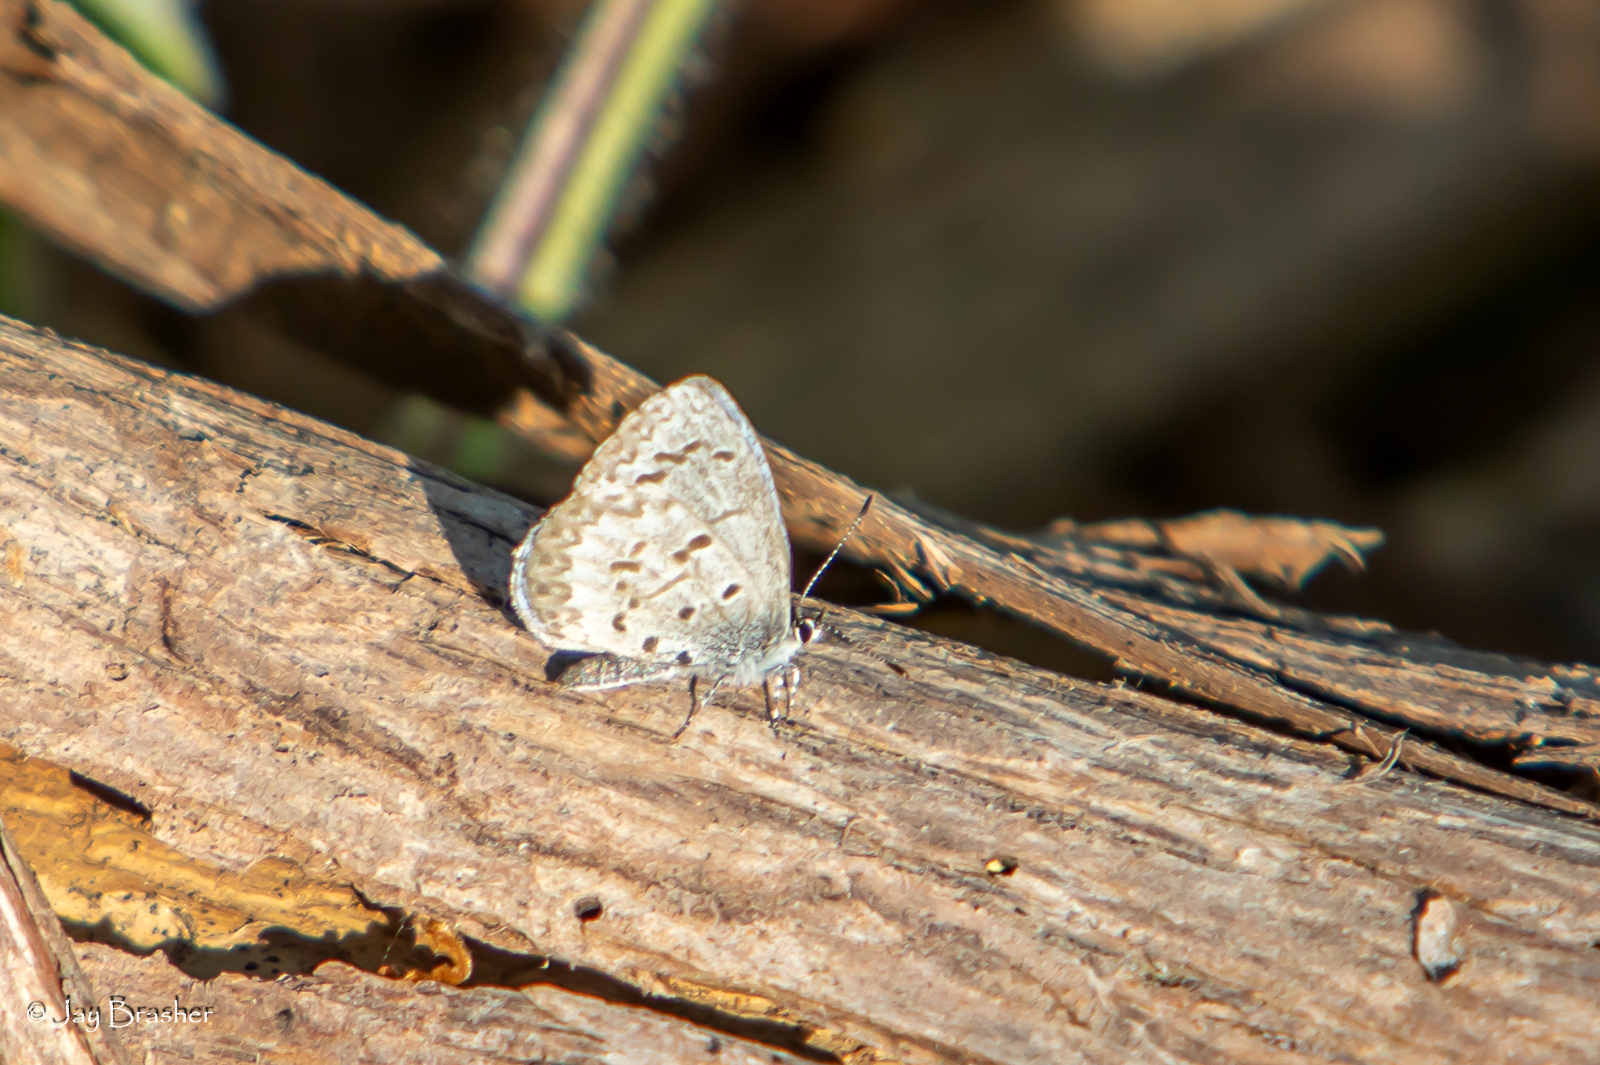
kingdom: Animalia
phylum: Arthropoda
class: Insecta
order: Lepidoptera
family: Lycaenidae
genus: Celastrina
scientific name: Celastrina lucia
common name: Lucia azure
